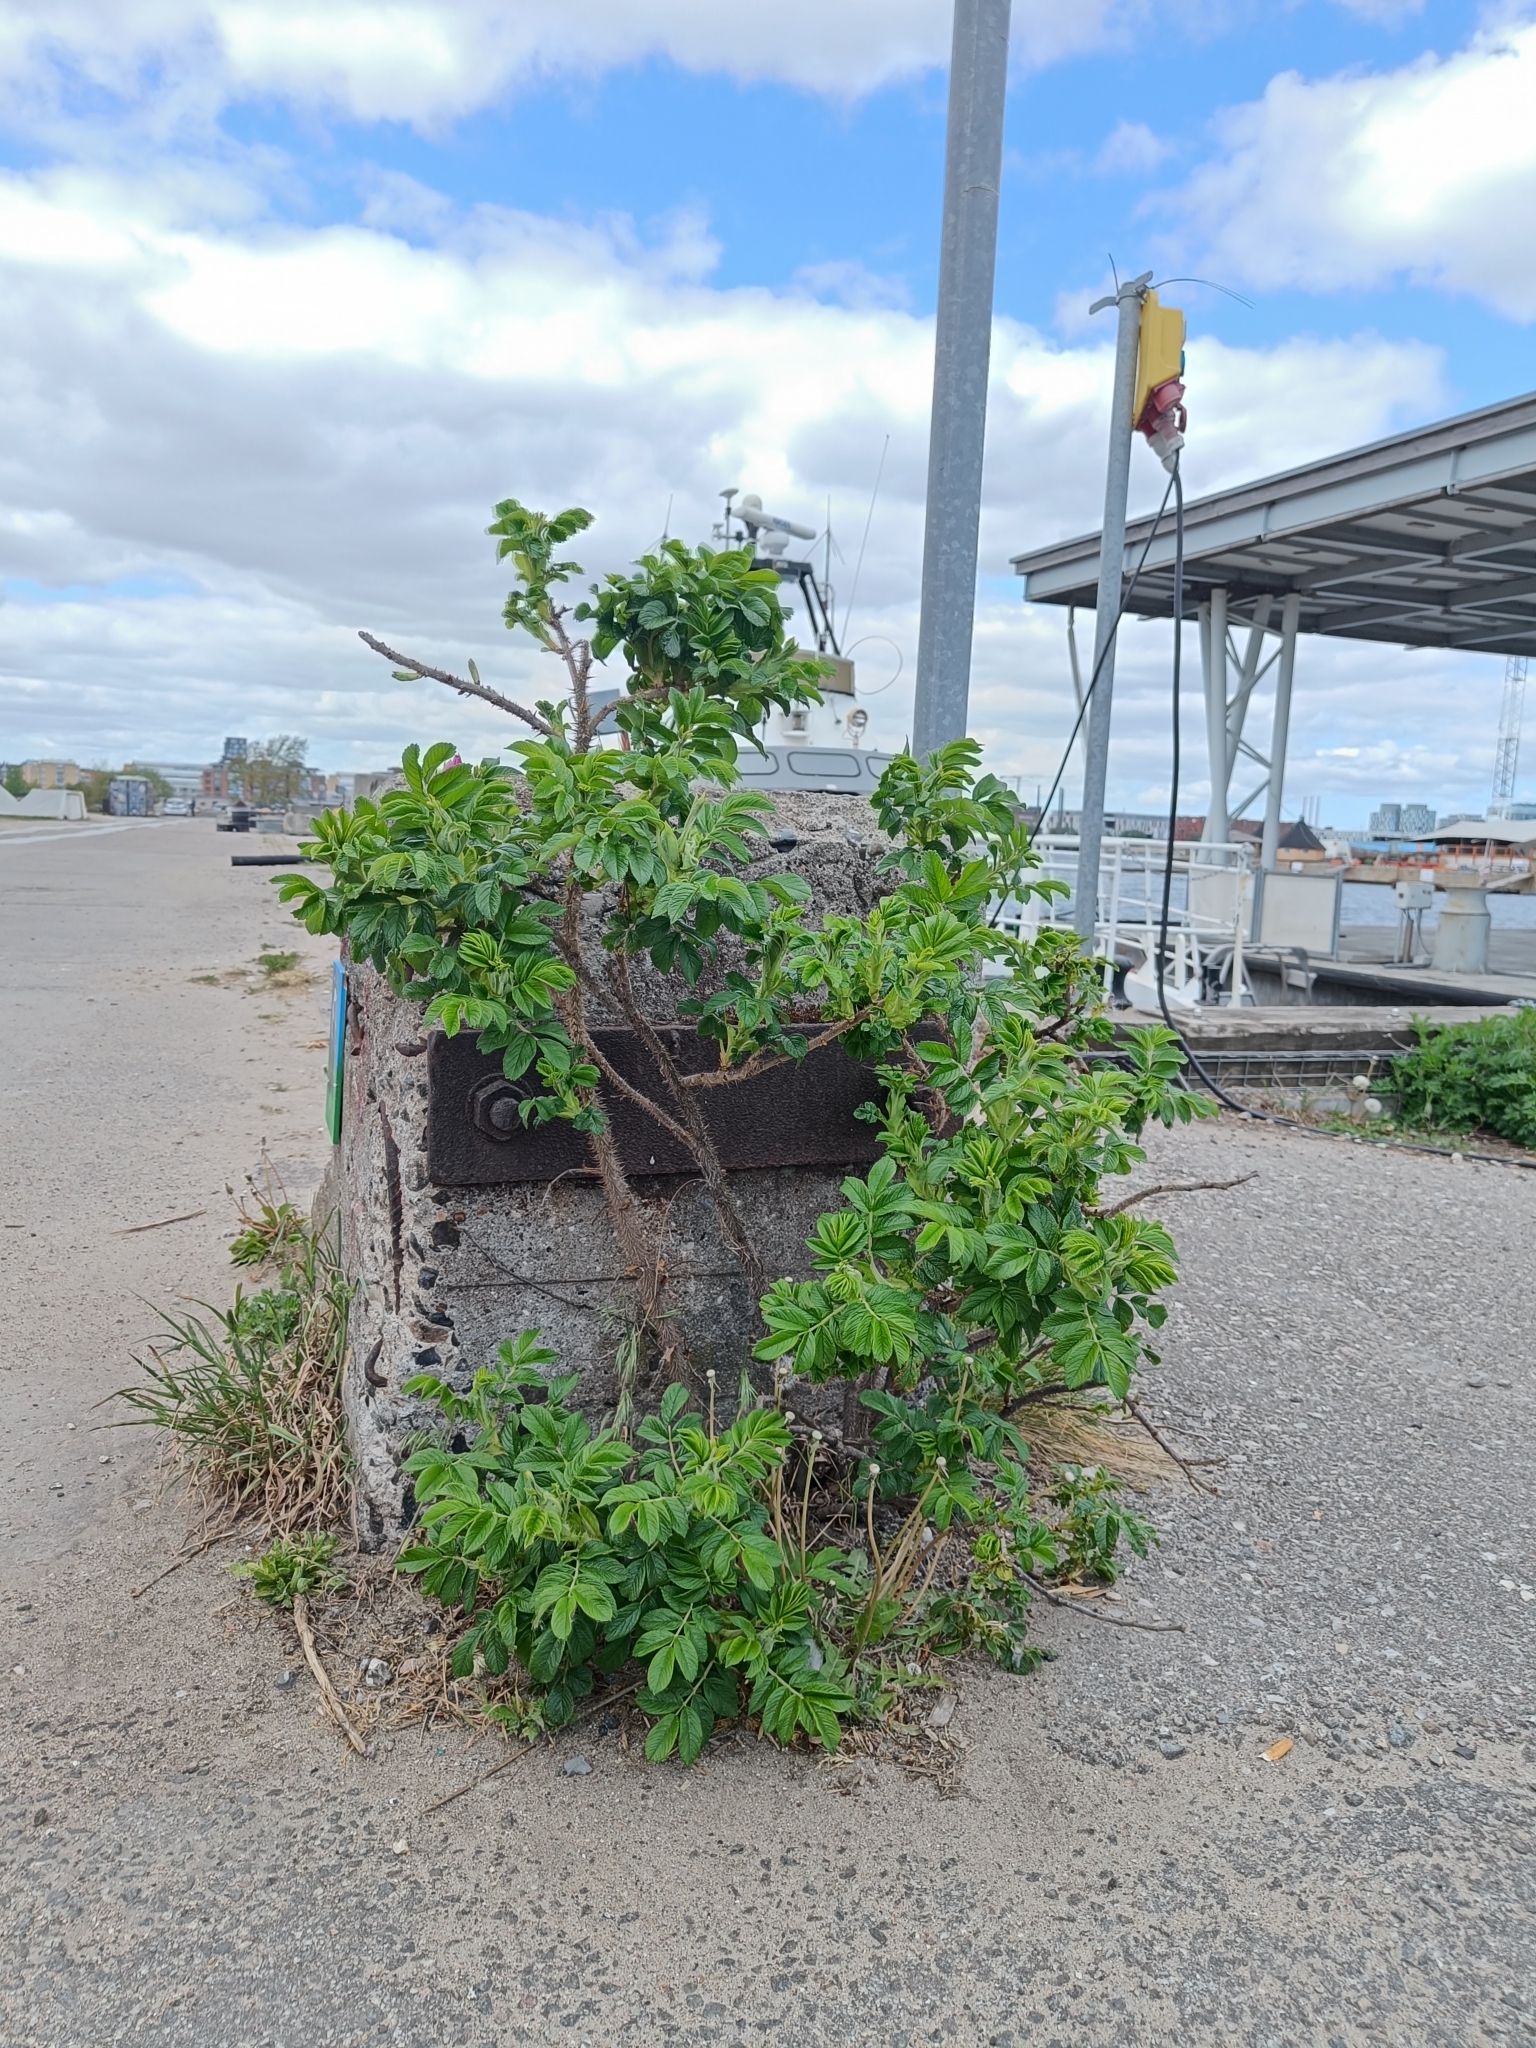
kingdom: Plantae
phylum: Tracheophyta
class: Magnoliopsida
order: Rosales
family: Rosaceae
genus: Rosa
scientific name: Rosa rugosa
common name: Japanese rose
